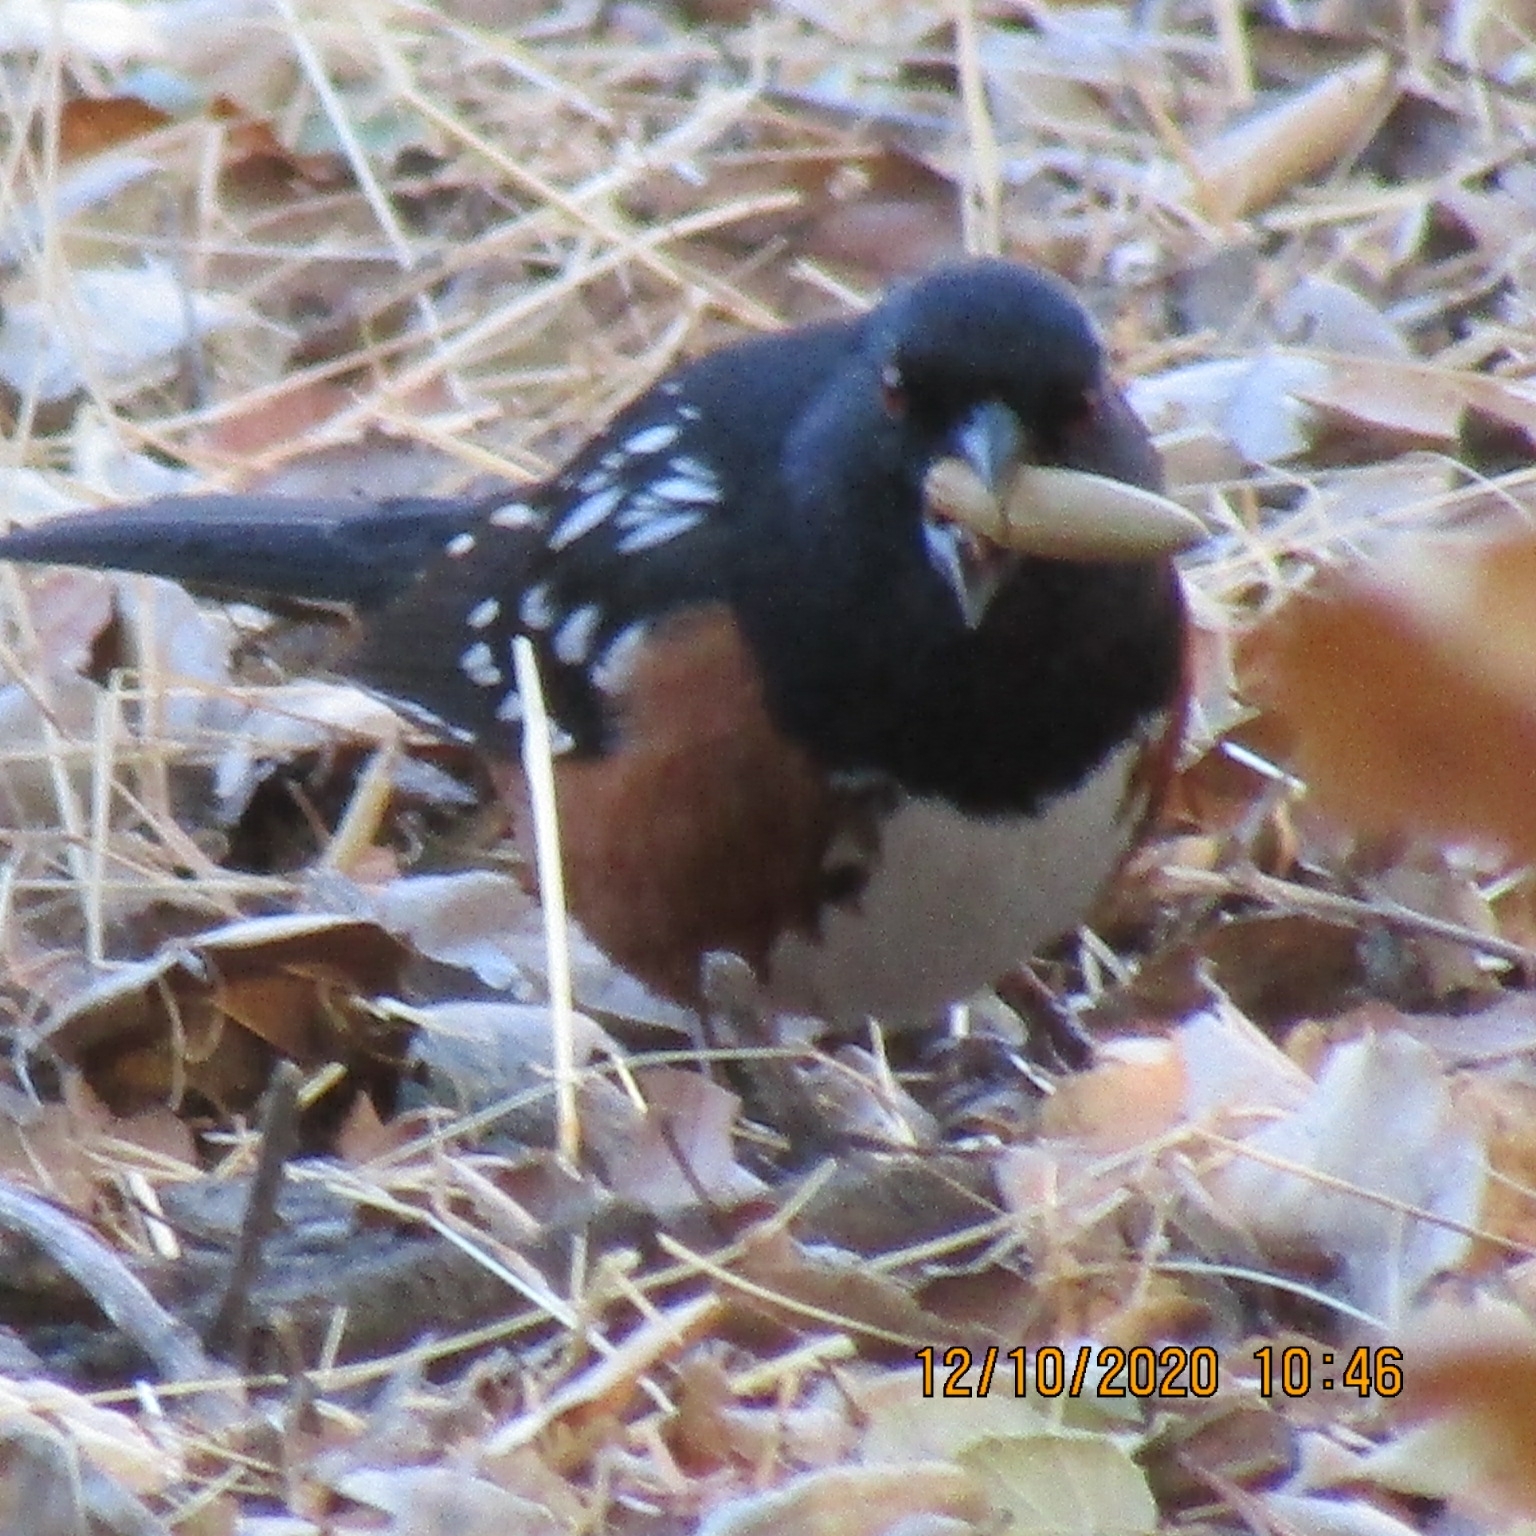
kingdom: Animalia
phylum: Chordata
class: Aves
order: Passeriformes
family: Passerellidae
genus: Pipilo
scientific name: Pipilo maculatus
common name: Spotted towhee
